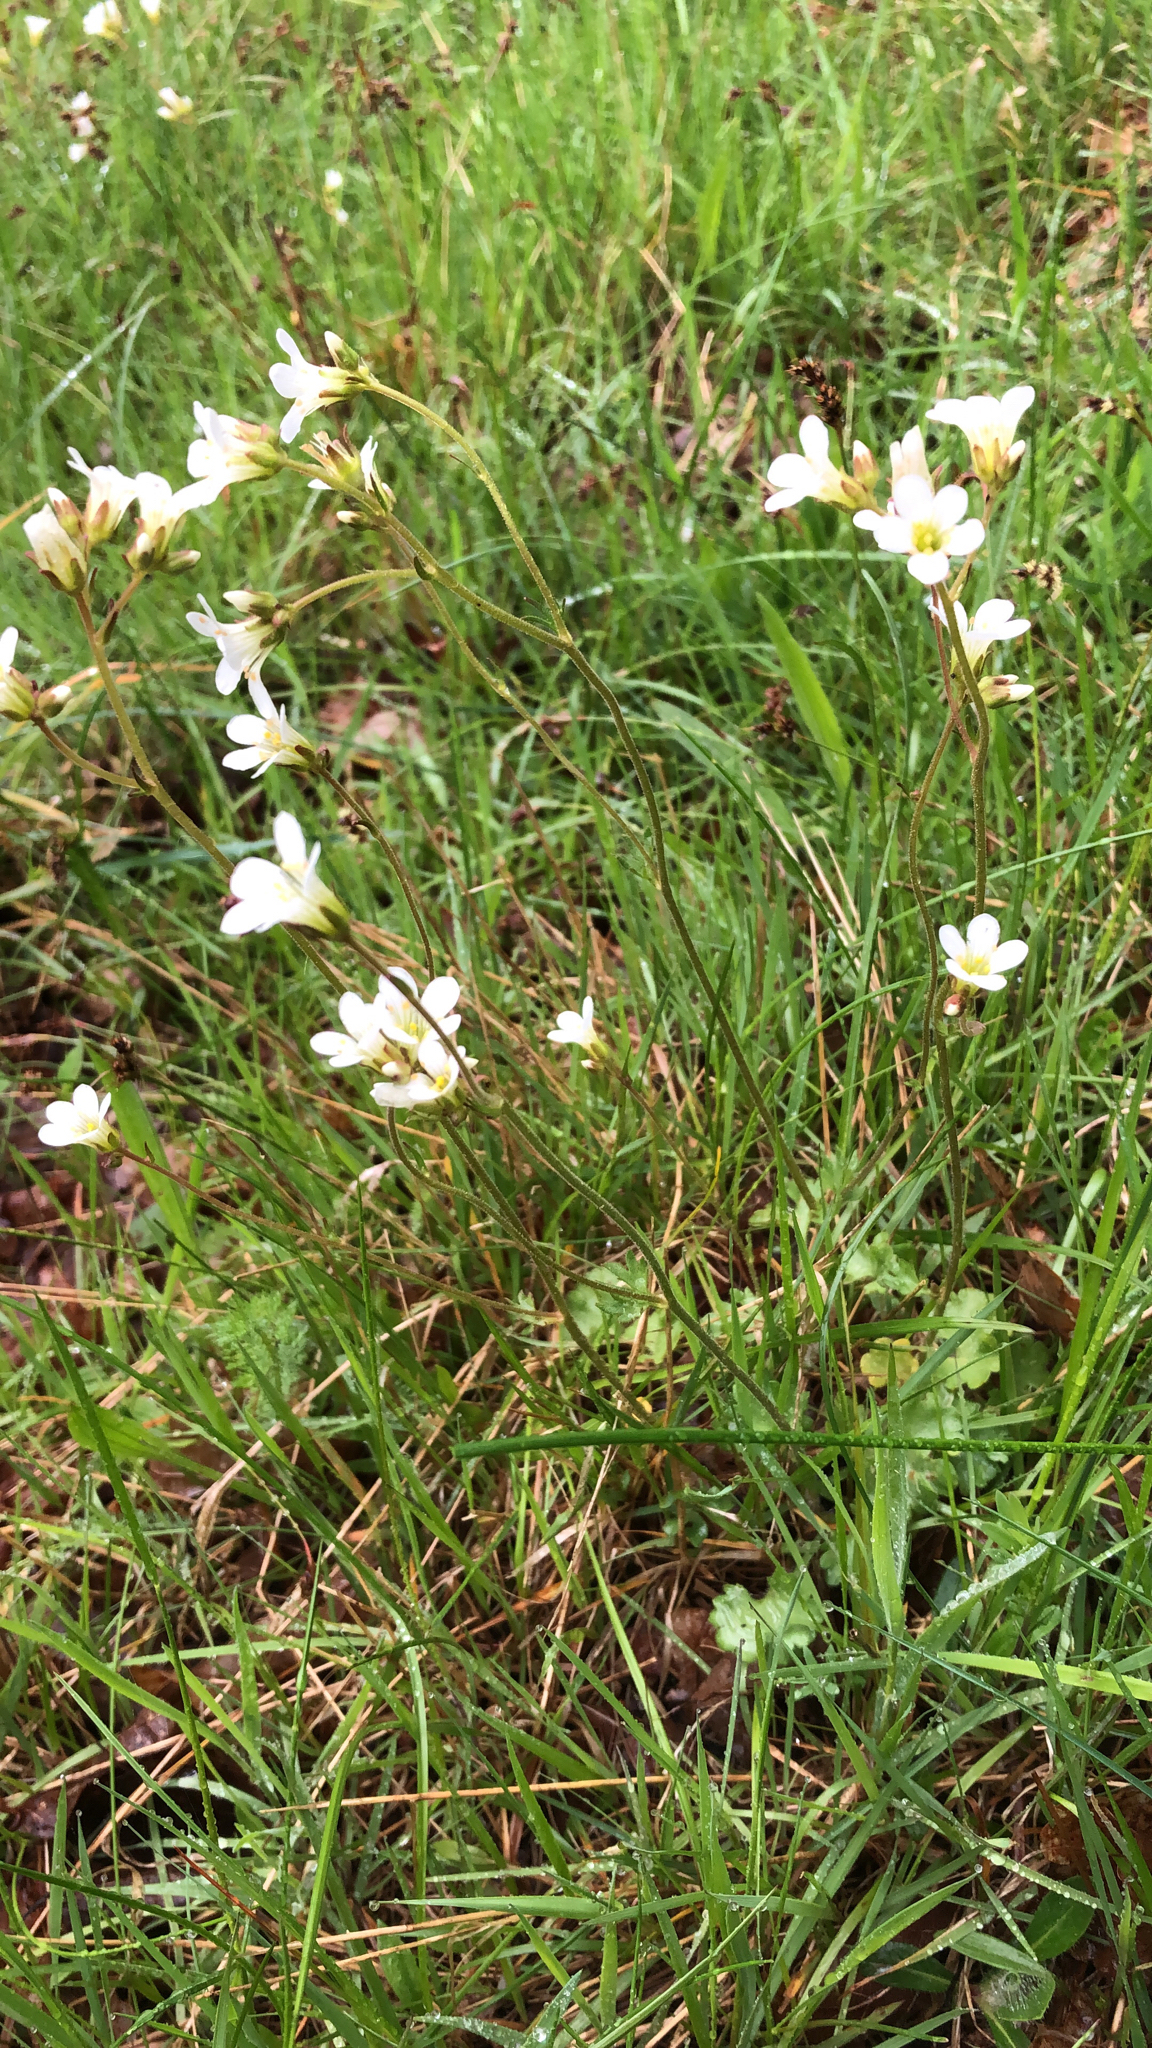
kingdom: Plantae
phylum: Tracheophyta
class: Magnoliopsida
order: Saxifragales
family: Saxifragaceae
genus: Saxifraga
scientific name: Saxifraga granulata
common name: Meadow saxifrage
